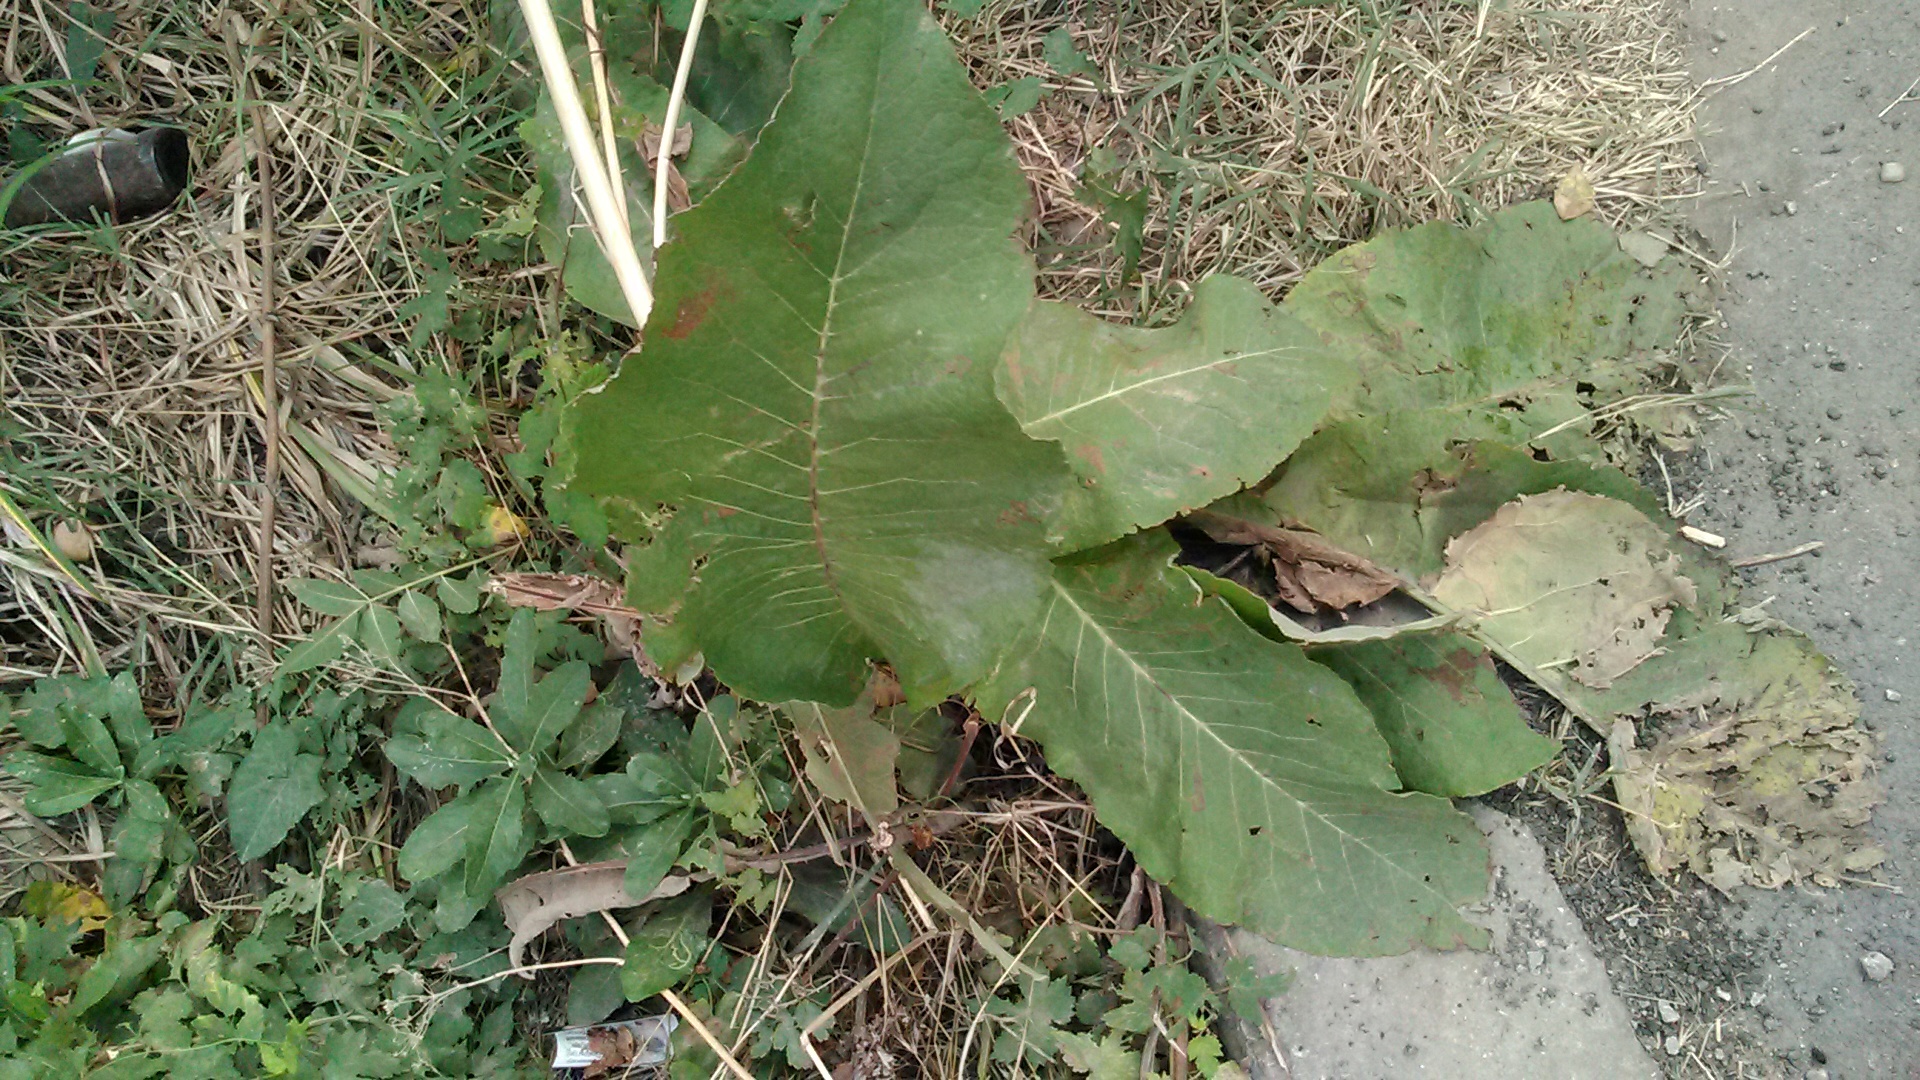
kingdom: Plantae
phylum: Tracheophyta
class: Magnoliopsida
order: Brassicales
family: Brassicaceae
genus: Armoracia
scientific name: Armoracia rusticana
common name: Horseradish
